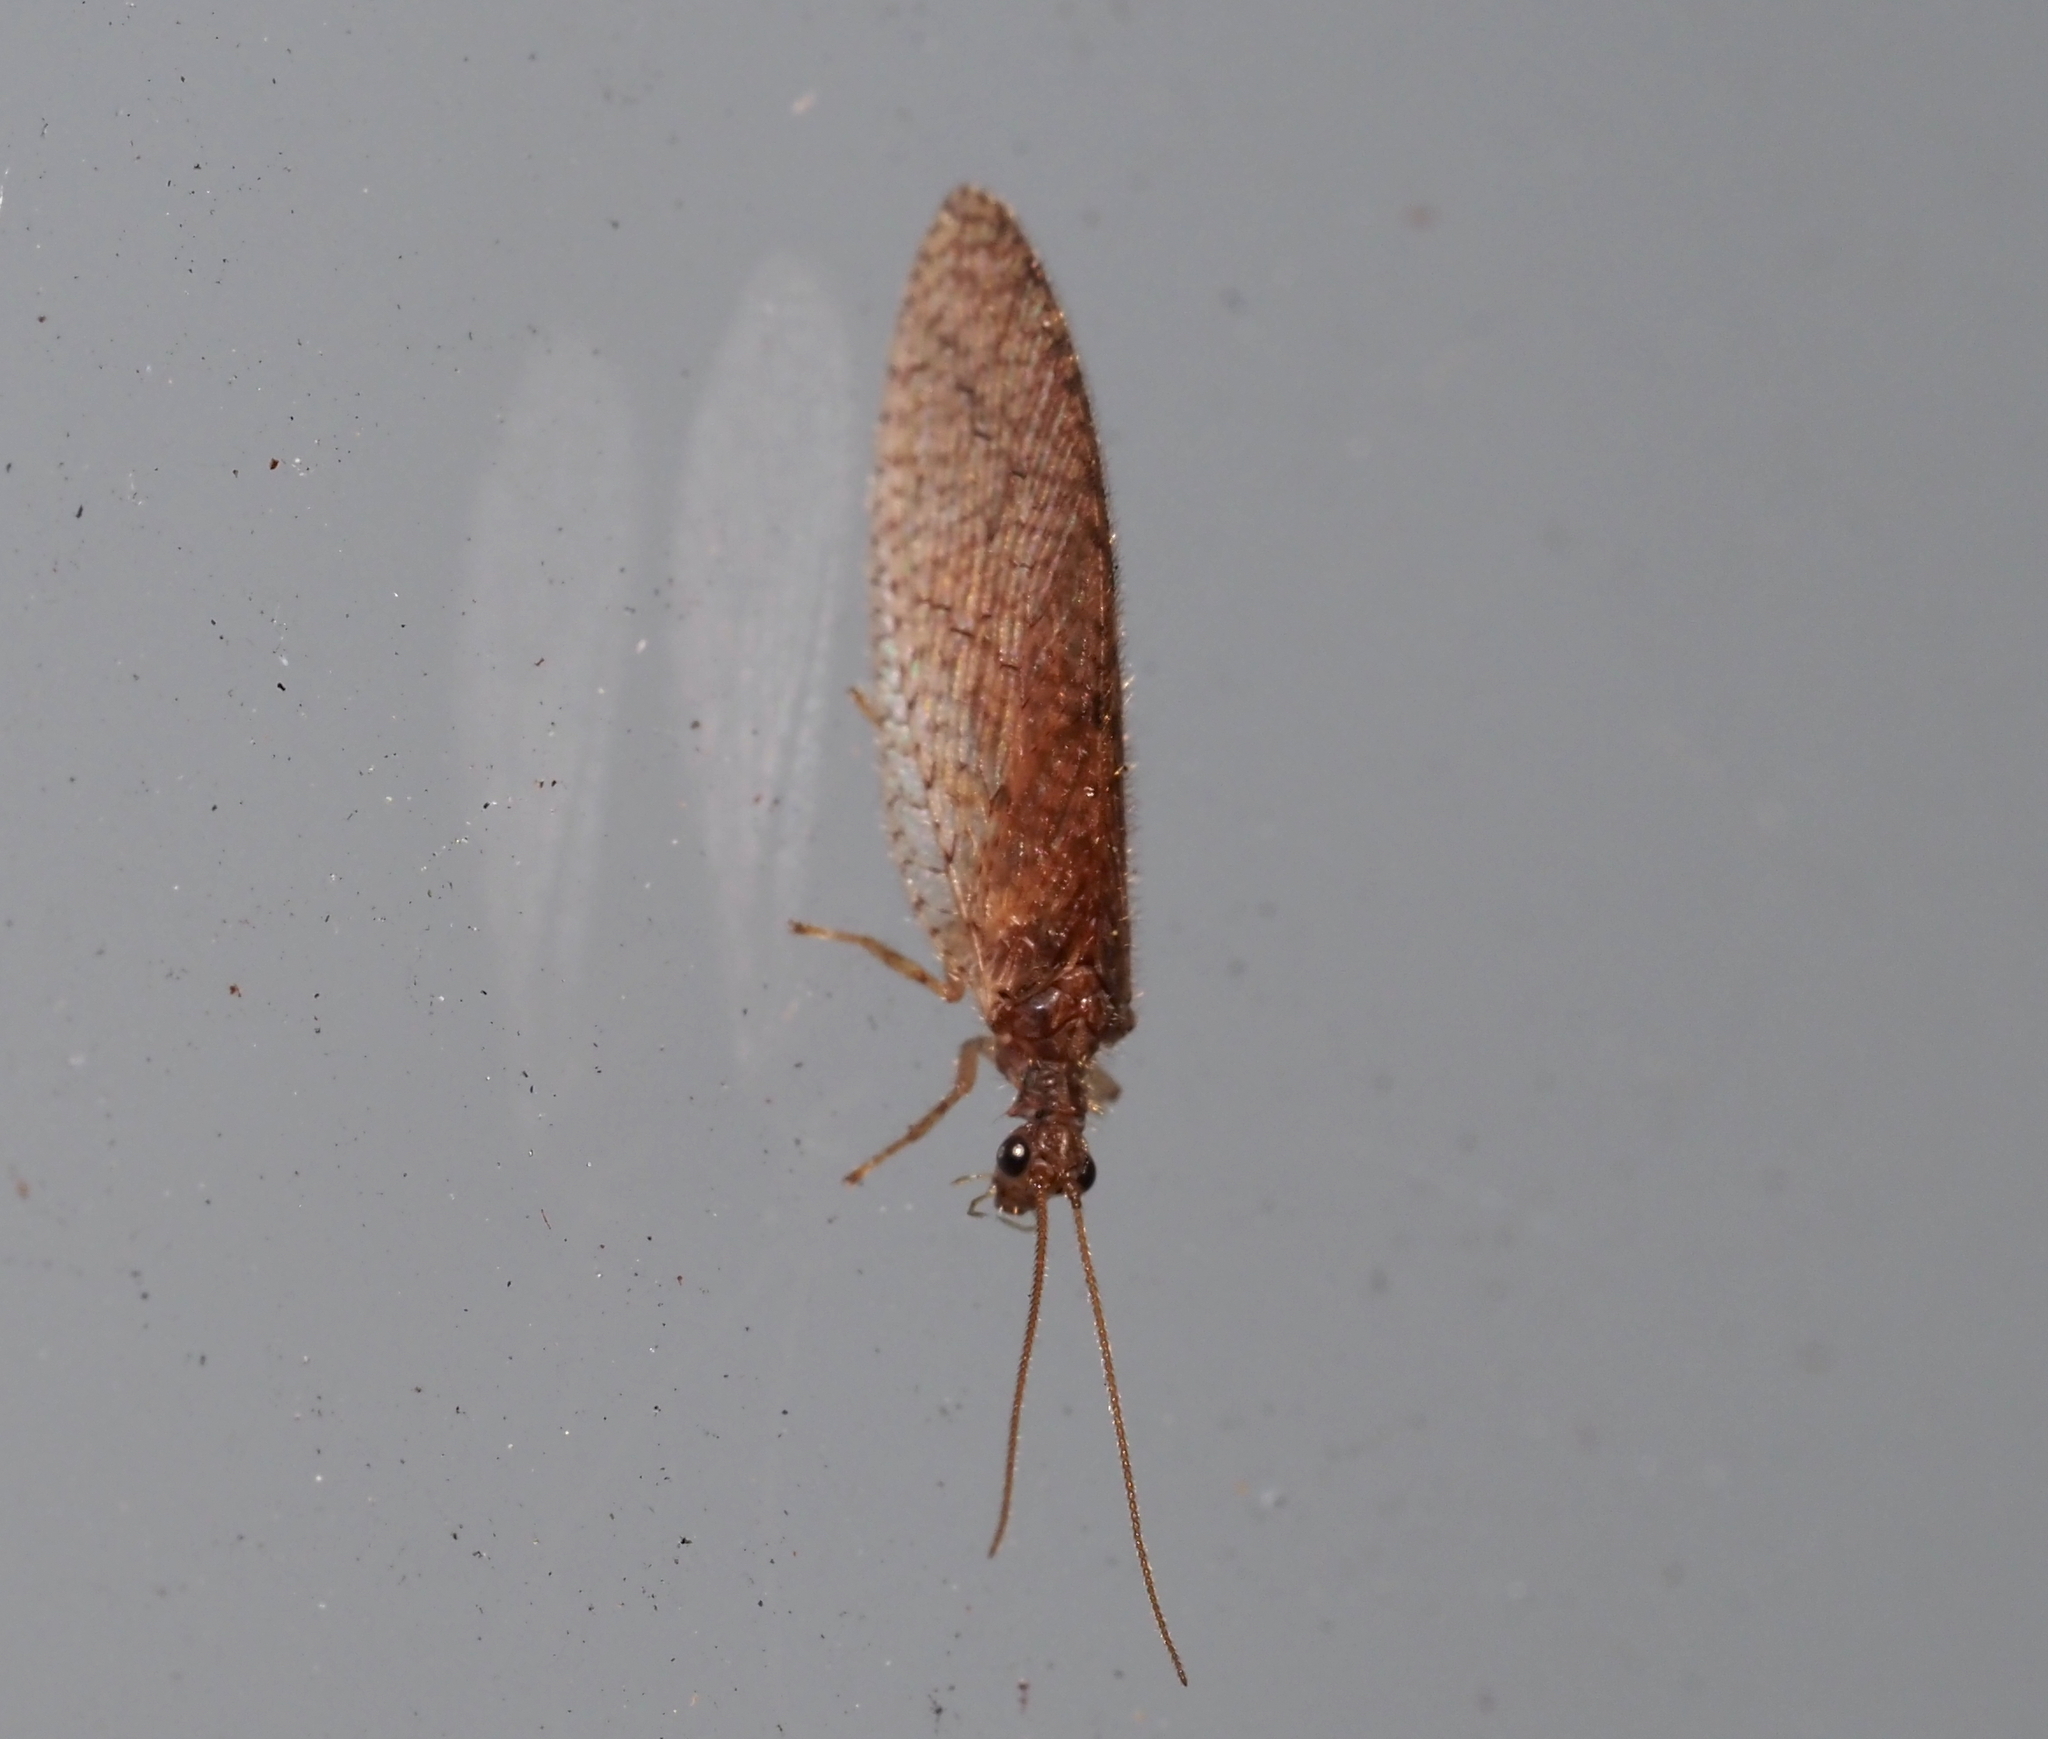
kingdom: Animalia
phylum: Arthropoda
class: Insecta
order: Neuroptera
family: Hemerobiidae
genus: Micromus
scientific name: Micromus posticus
